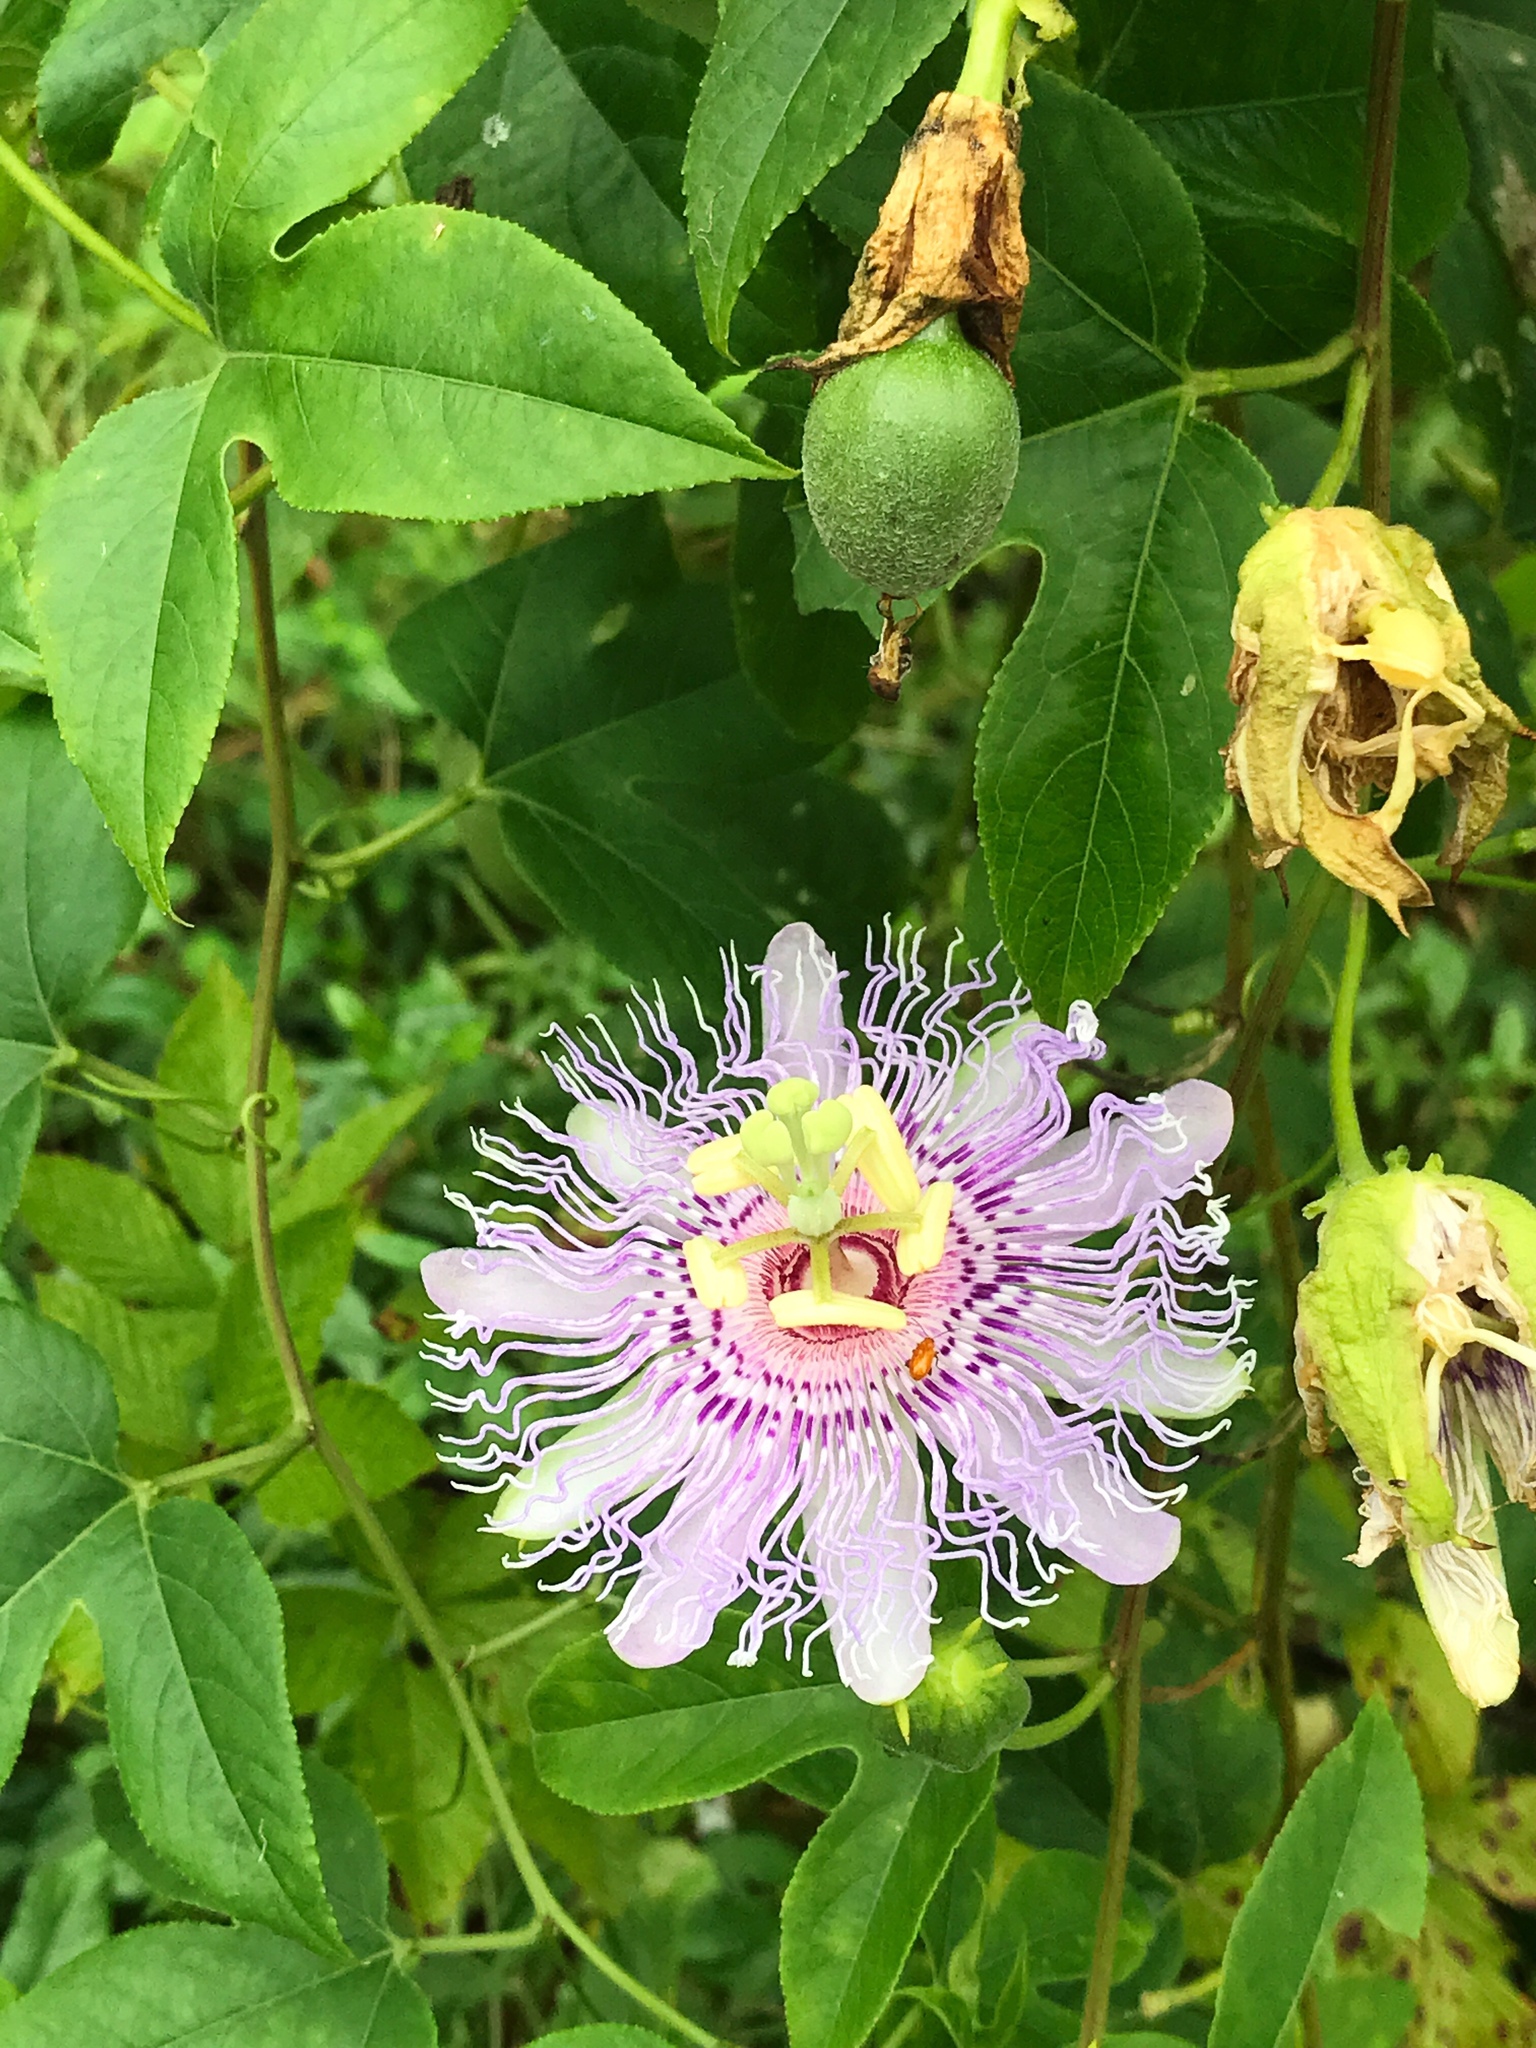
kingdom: Plantae
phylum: Tracheophyta
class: Magnoliopsida
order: Malpighiales
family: Passifloraceae
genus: Passiflora
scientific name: Passiflora incarnata
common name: Apricot-vine
